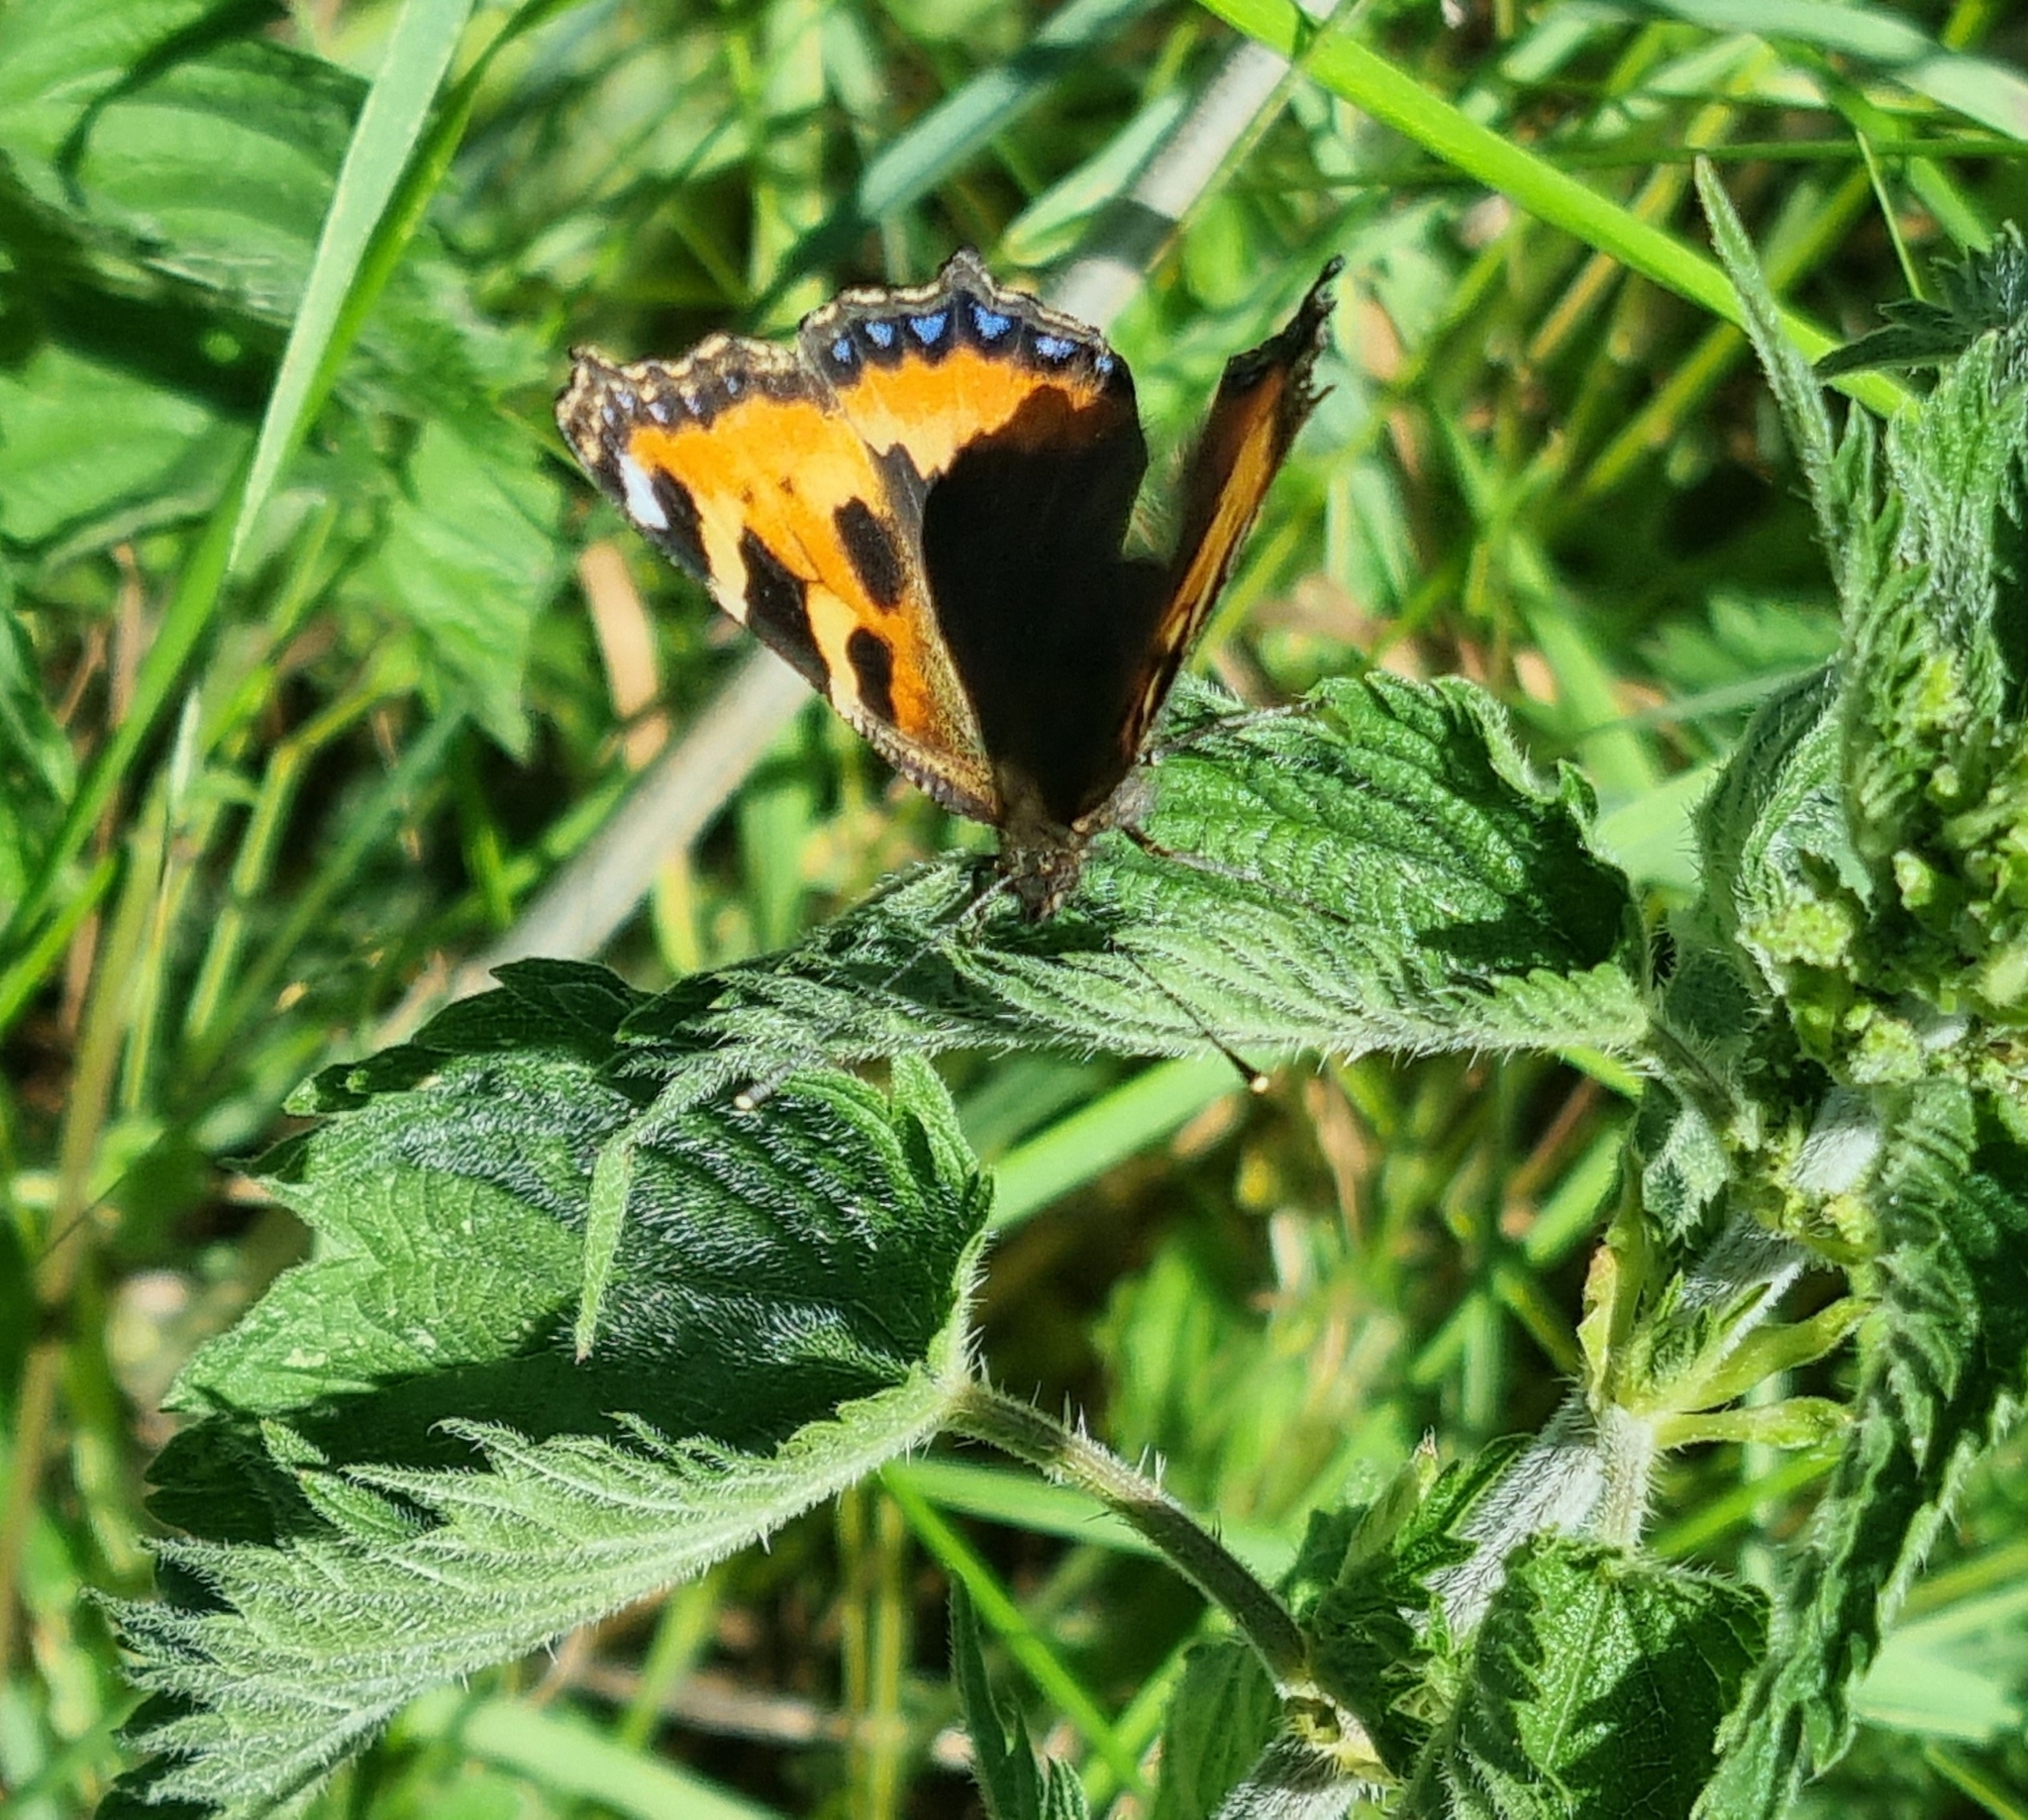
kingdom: Animalia
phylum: Arthropoda
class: Insecta
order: Lepidoptera
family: Nymphalidae
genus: Aglais
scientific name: Aglais urticae
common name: Small tortoiseshell
